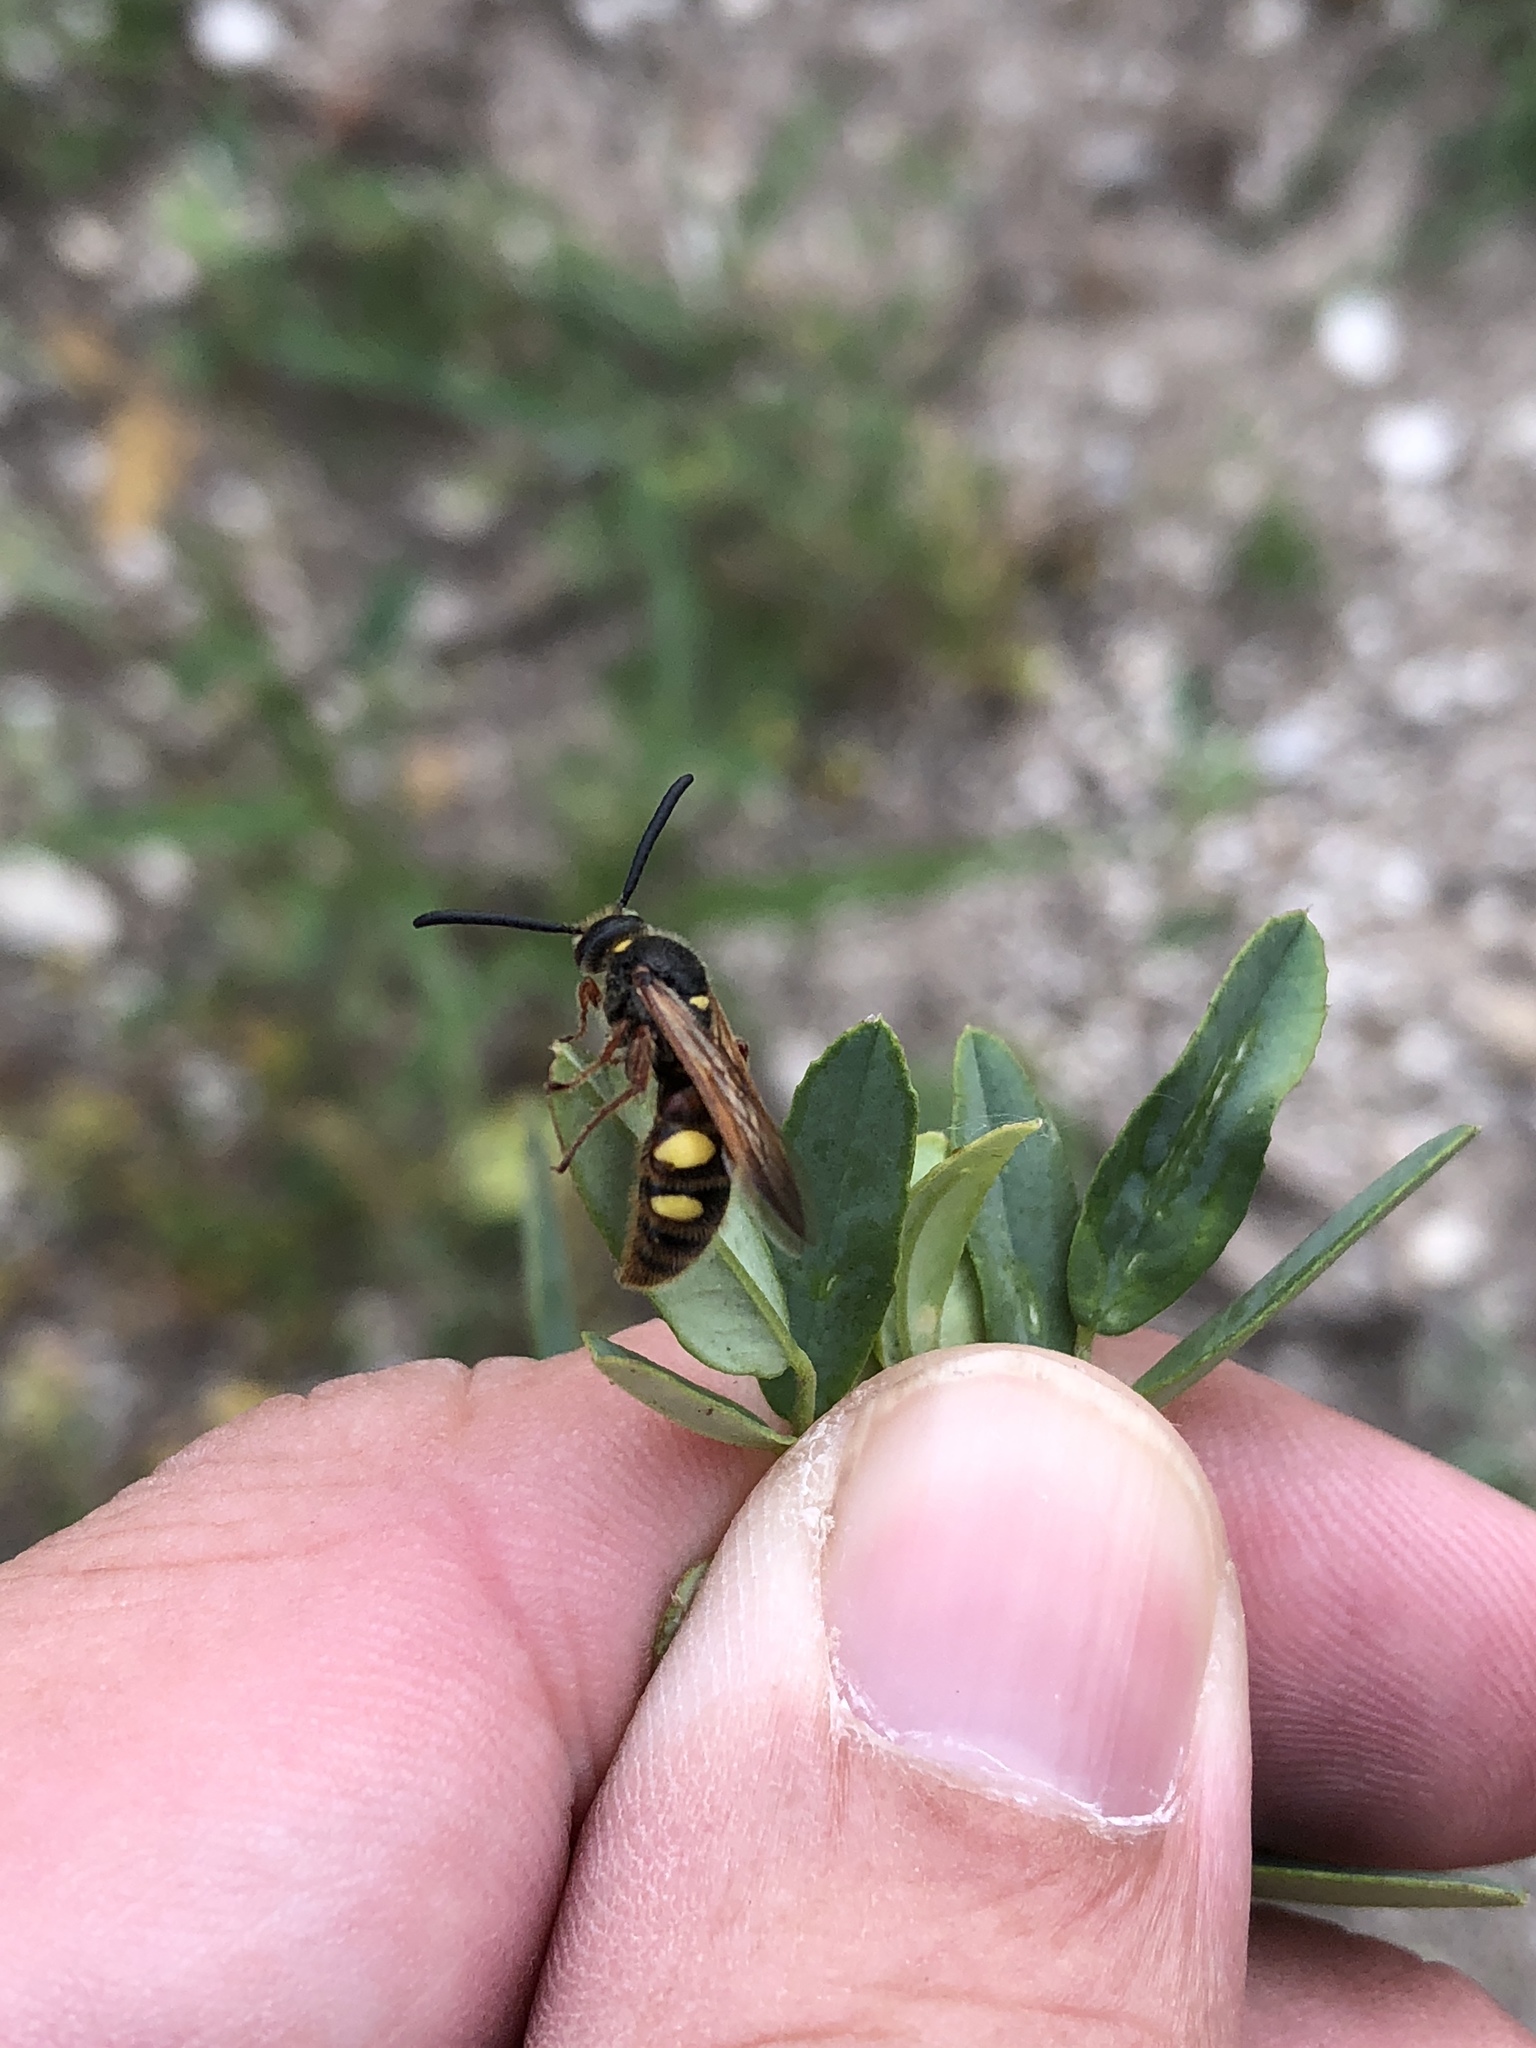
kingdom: Animalia
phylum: Arthropoda
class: Insecta
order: Hymenoptera
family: Scoliidae
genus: Scolia
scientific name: Scolia nobilitata
